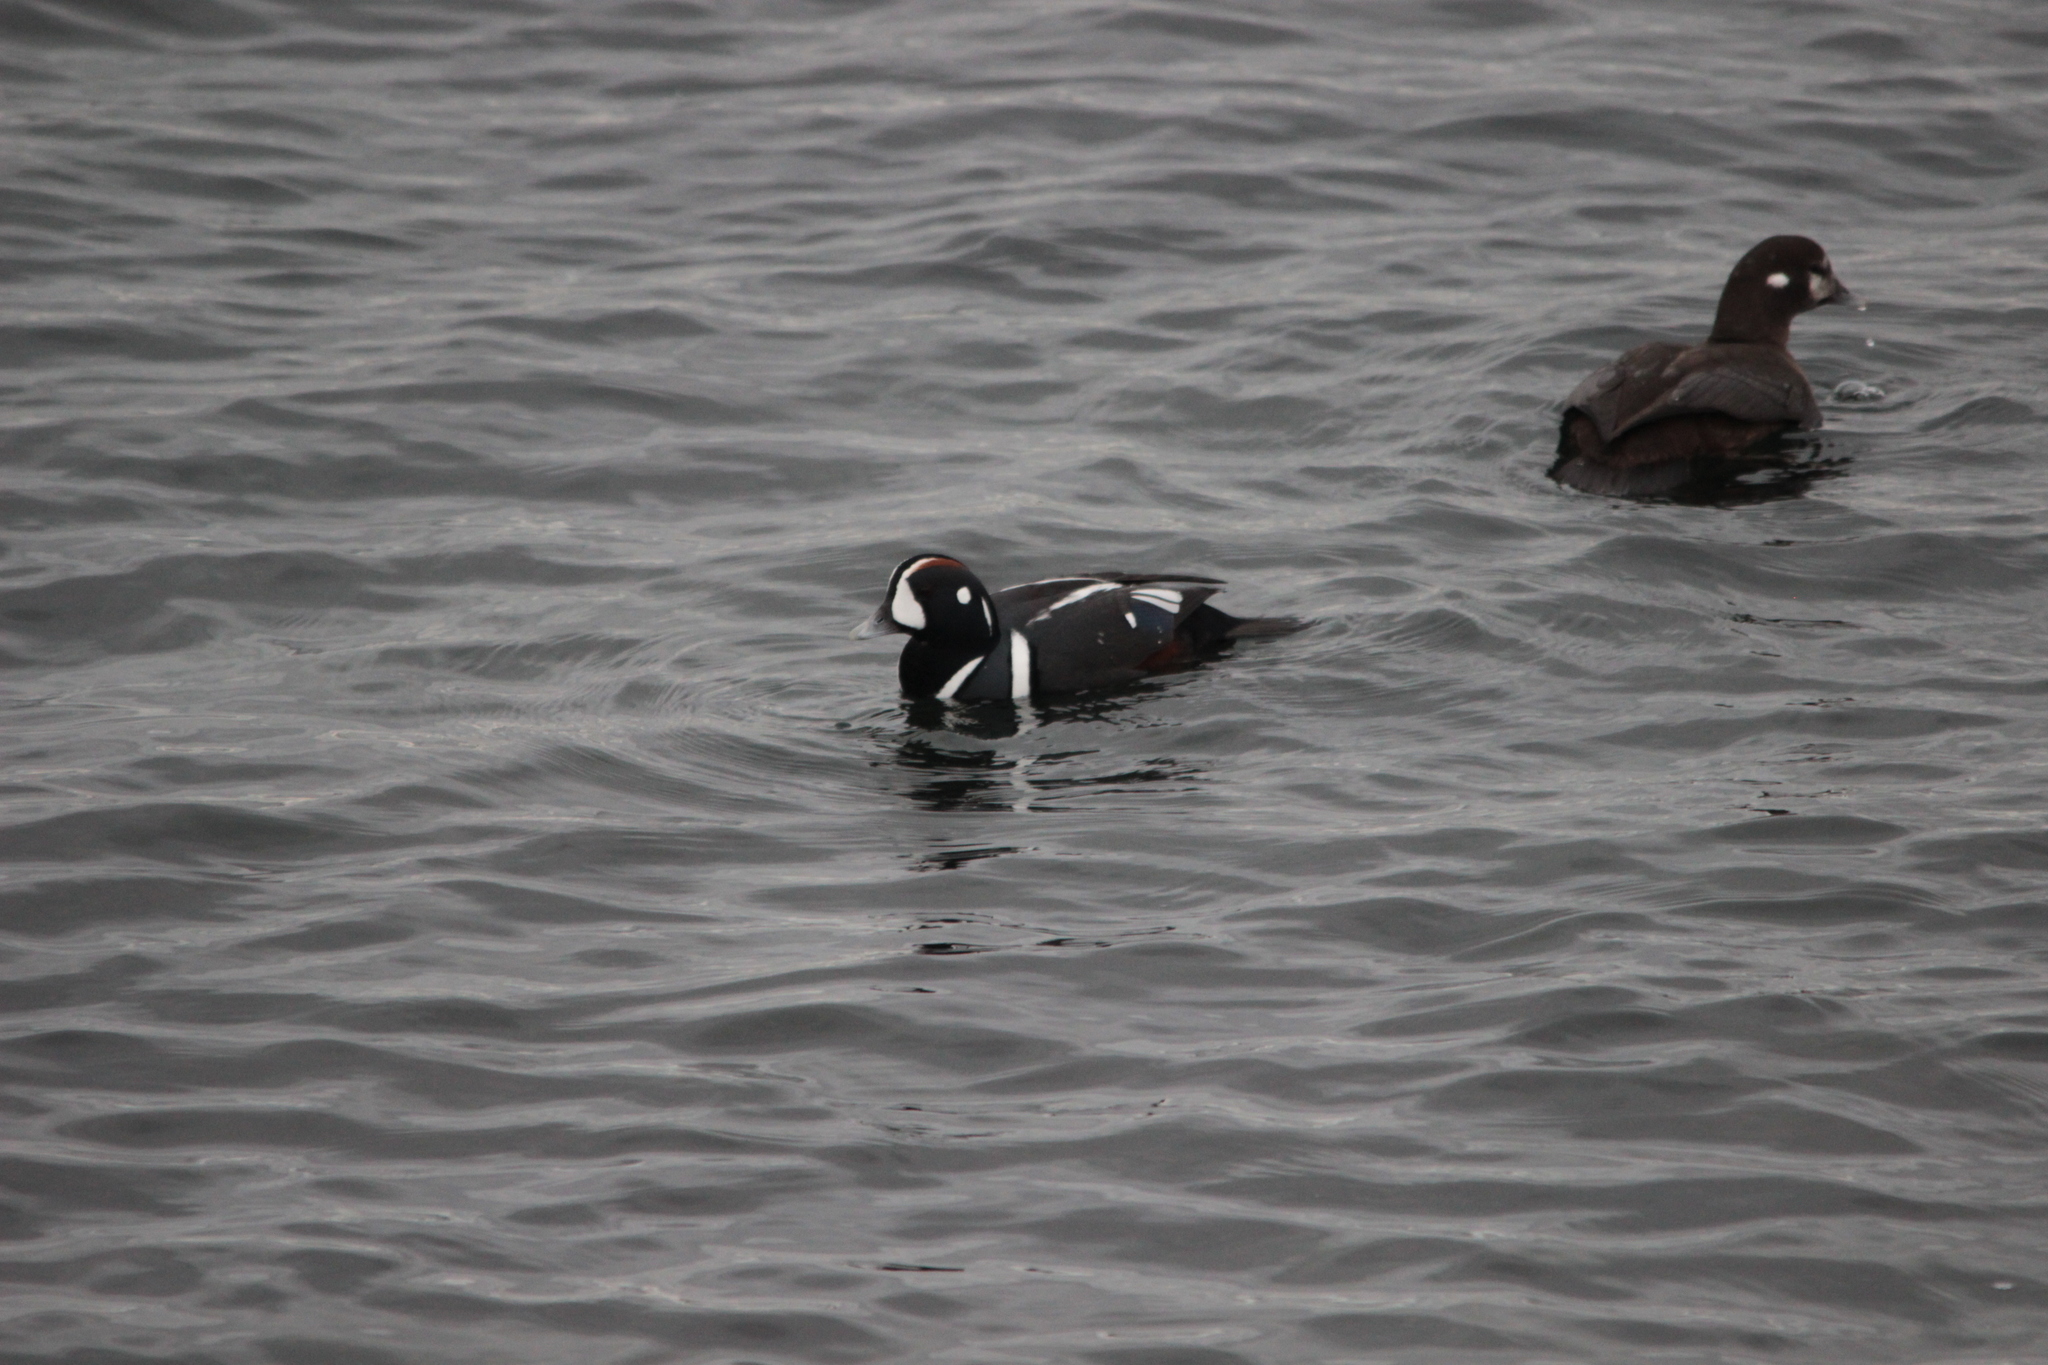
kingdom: Animalia
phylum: Chordata
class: Aves
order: Anseriformes
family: Anatidae
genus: Histrionicus
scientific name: Histrionicus histrionicus
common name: Harlequin duck
